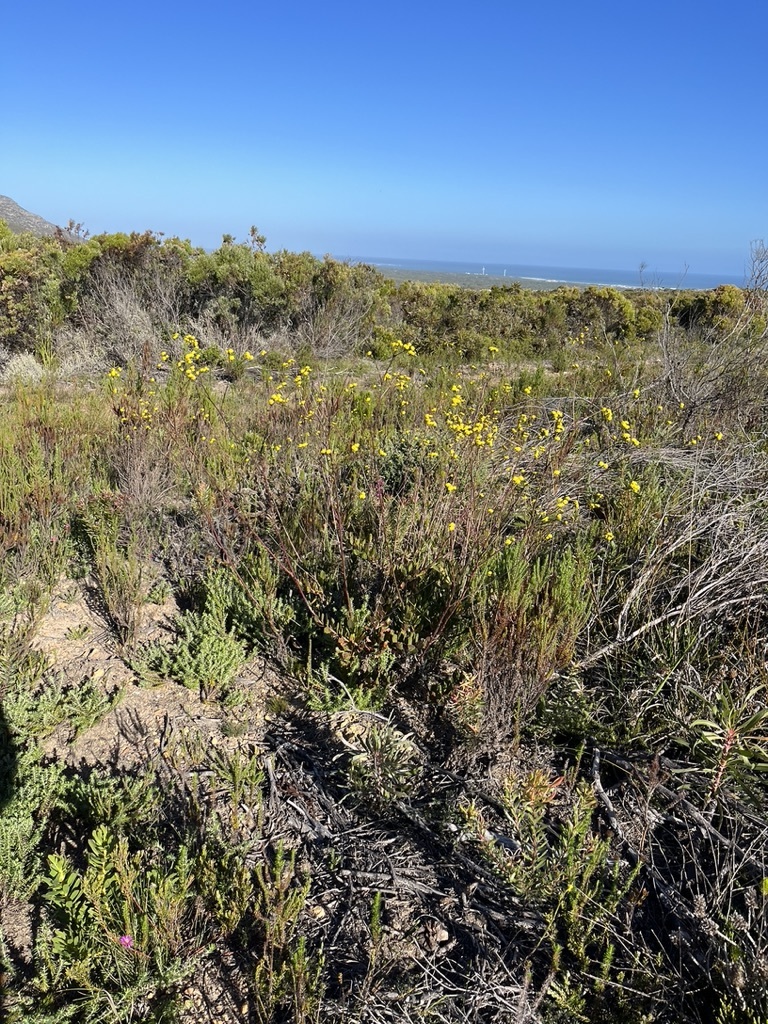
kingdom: Plantae
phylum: Tracheophyta
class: Magnoliopsida
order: Asterales
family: Asteraceae
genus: Othonna
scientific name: Othonna quinquedentata
